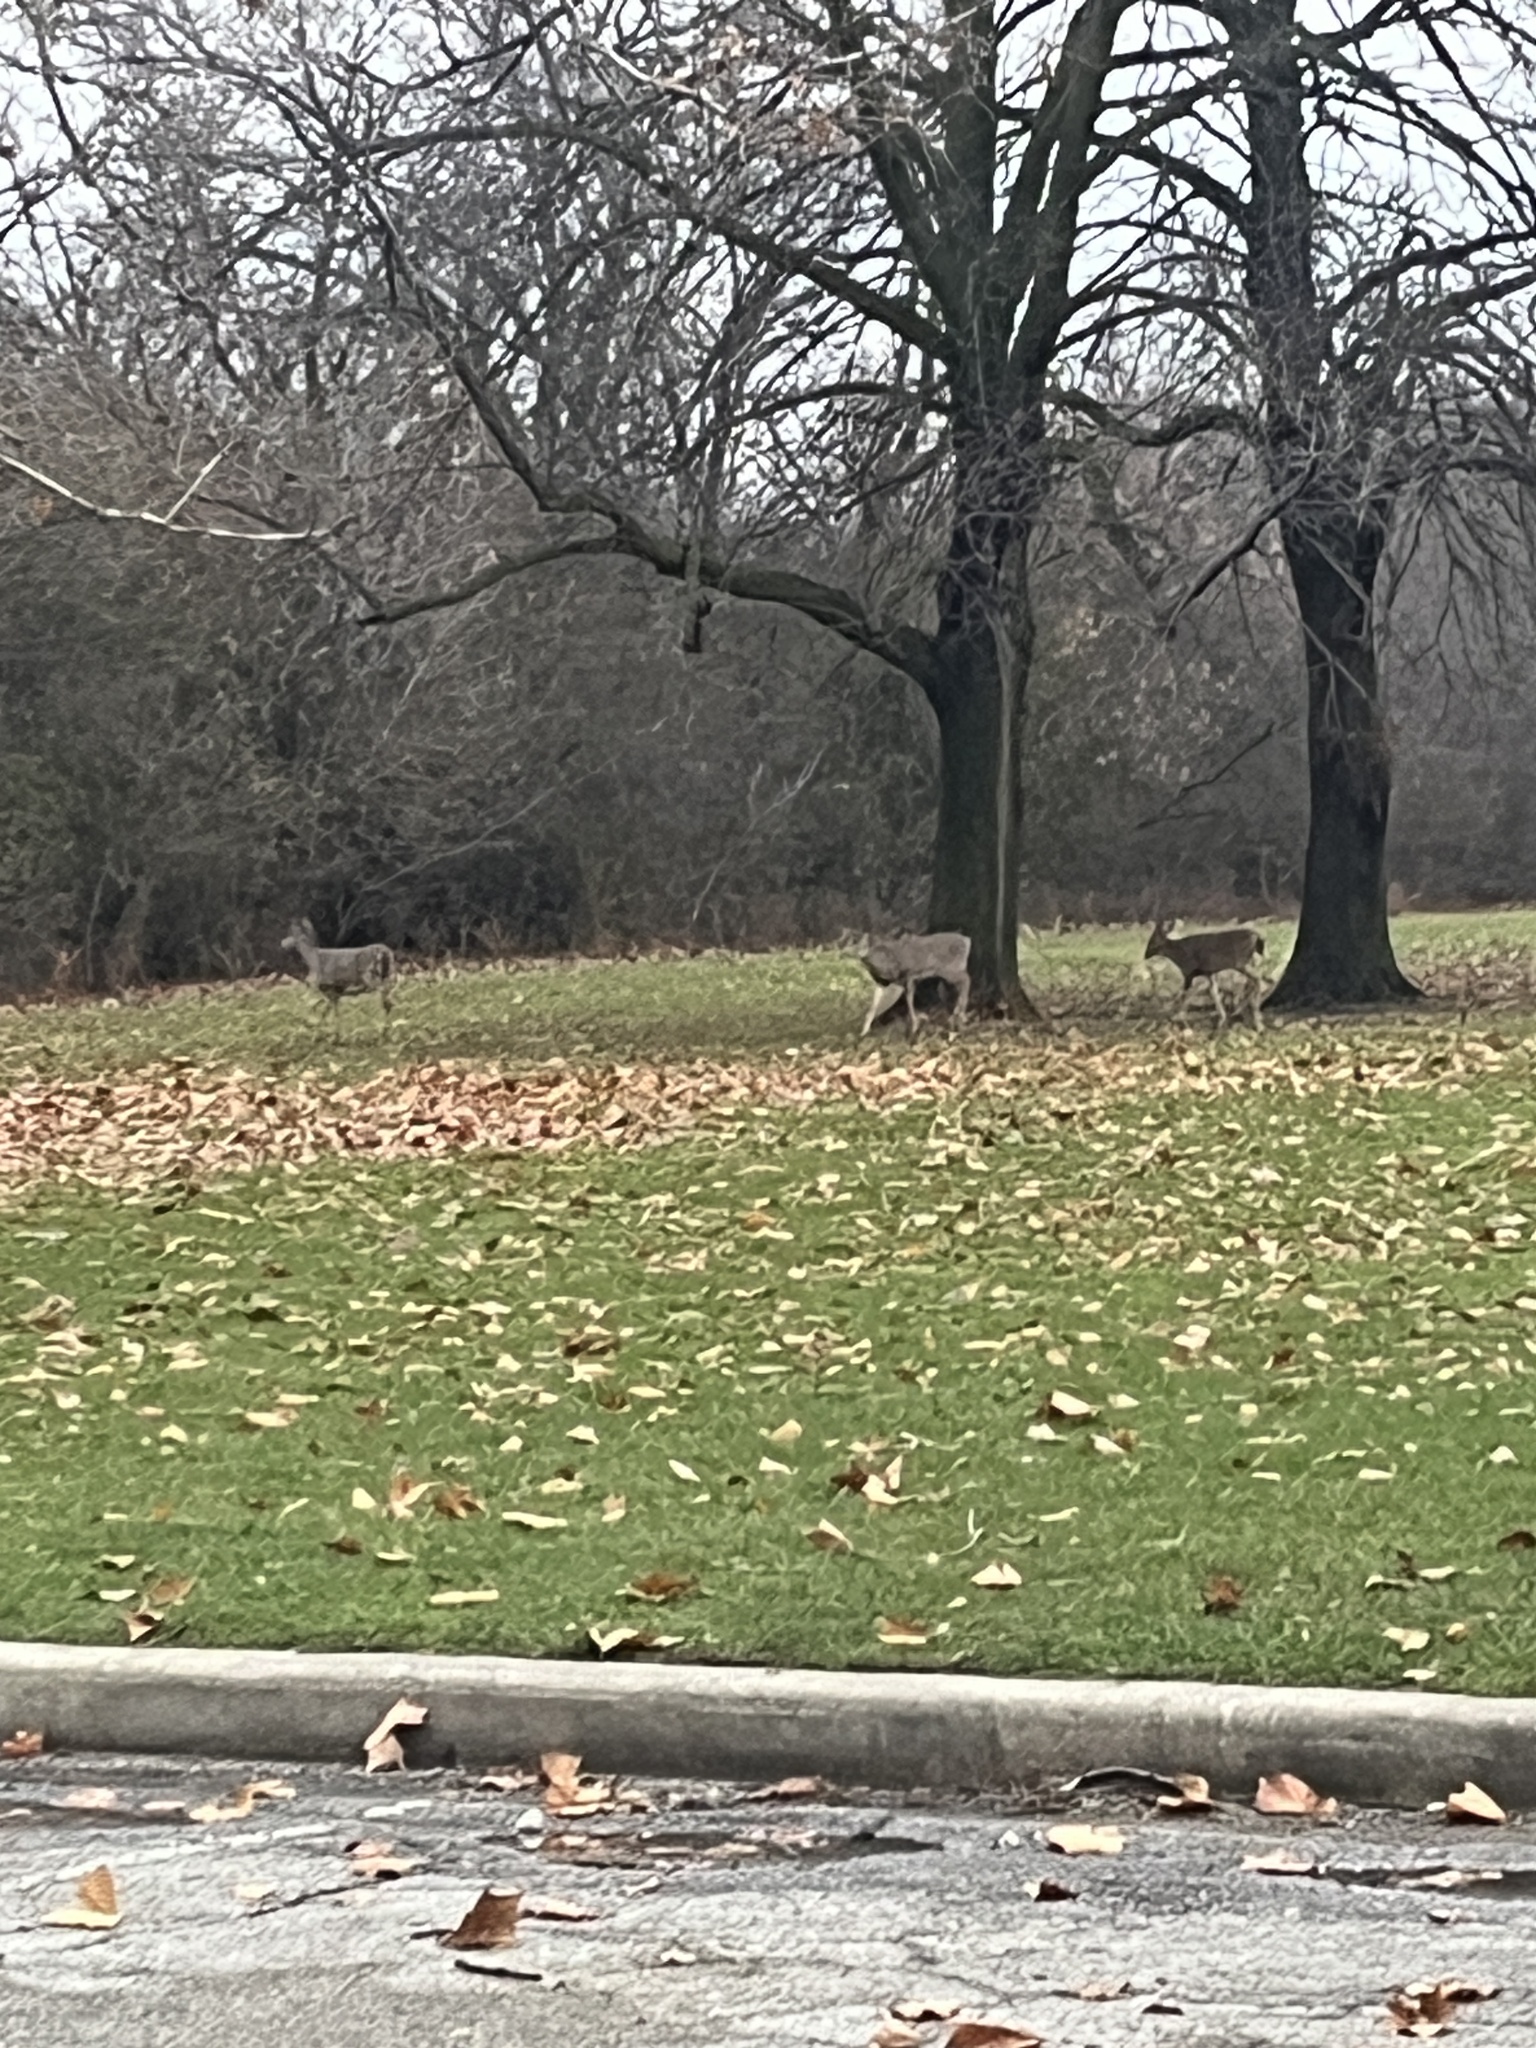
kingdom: Animalia
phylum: Chordata
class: Mammalia
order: Artiodactyla
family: Cervidae
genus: Odocoileus
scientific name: Odocoileus virginianus
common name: White-tailed deer
